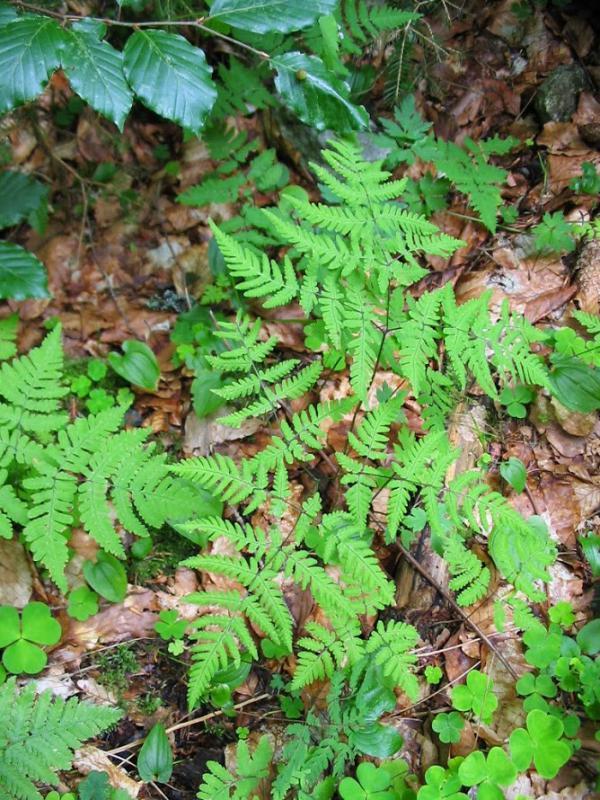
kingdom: Plantae
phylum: Tracheophyta
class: Polypodiopsida
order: Polypodiales
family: Cystopteridaceae
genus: Gymnocarpium
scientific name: Gymnocarpium dryopteris
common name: Oak fern
